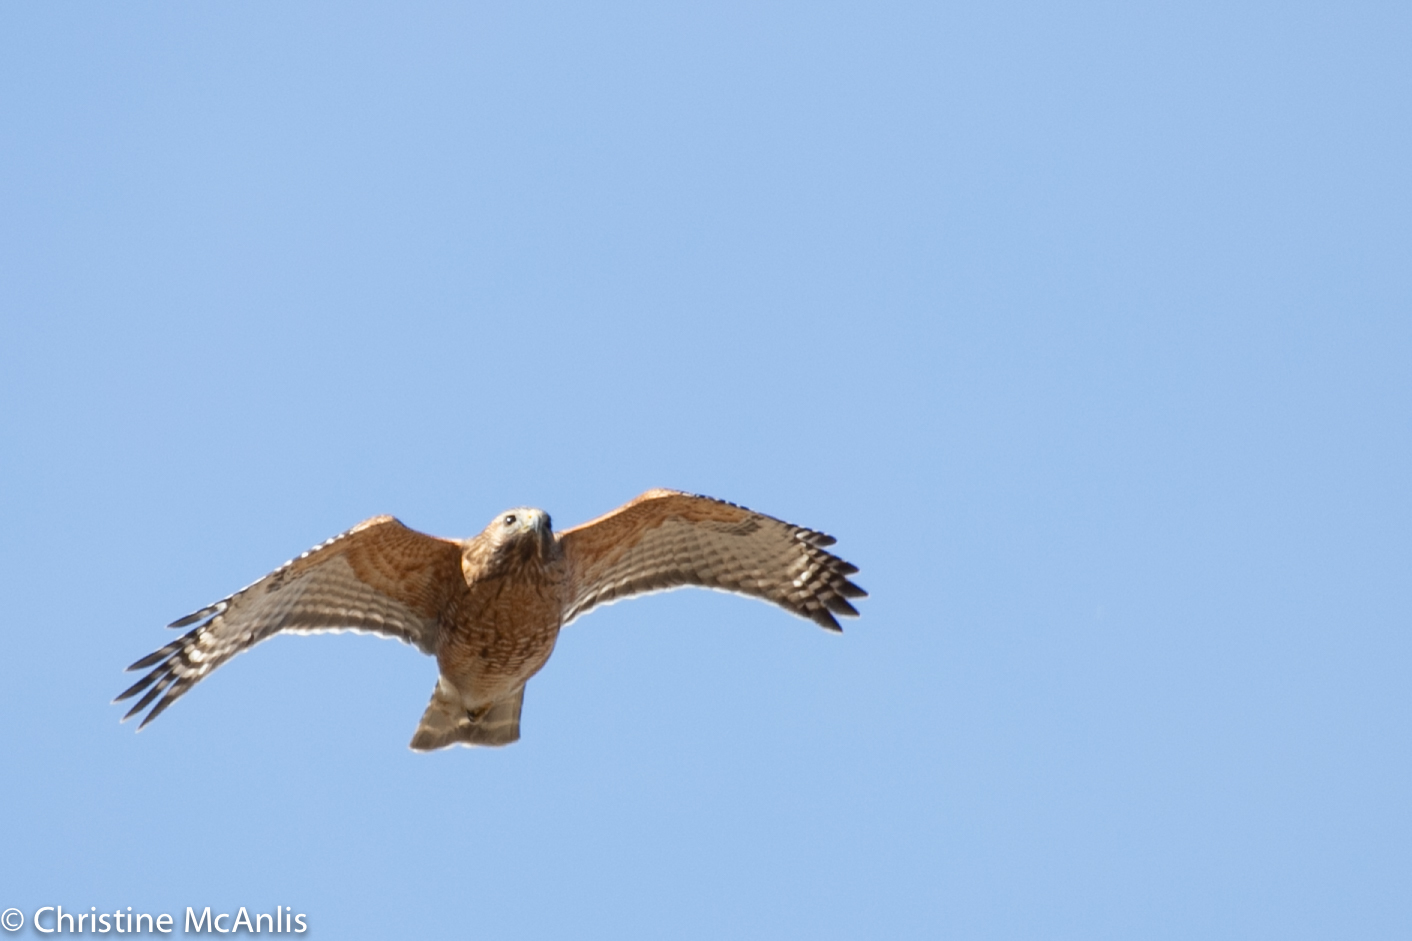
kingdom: Animalia
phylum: Chordata
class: Aves
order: Accipitriformes
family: Accipitridae
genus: Buteo
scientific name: Buteo lineatus
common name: Red-shouldered hawk
